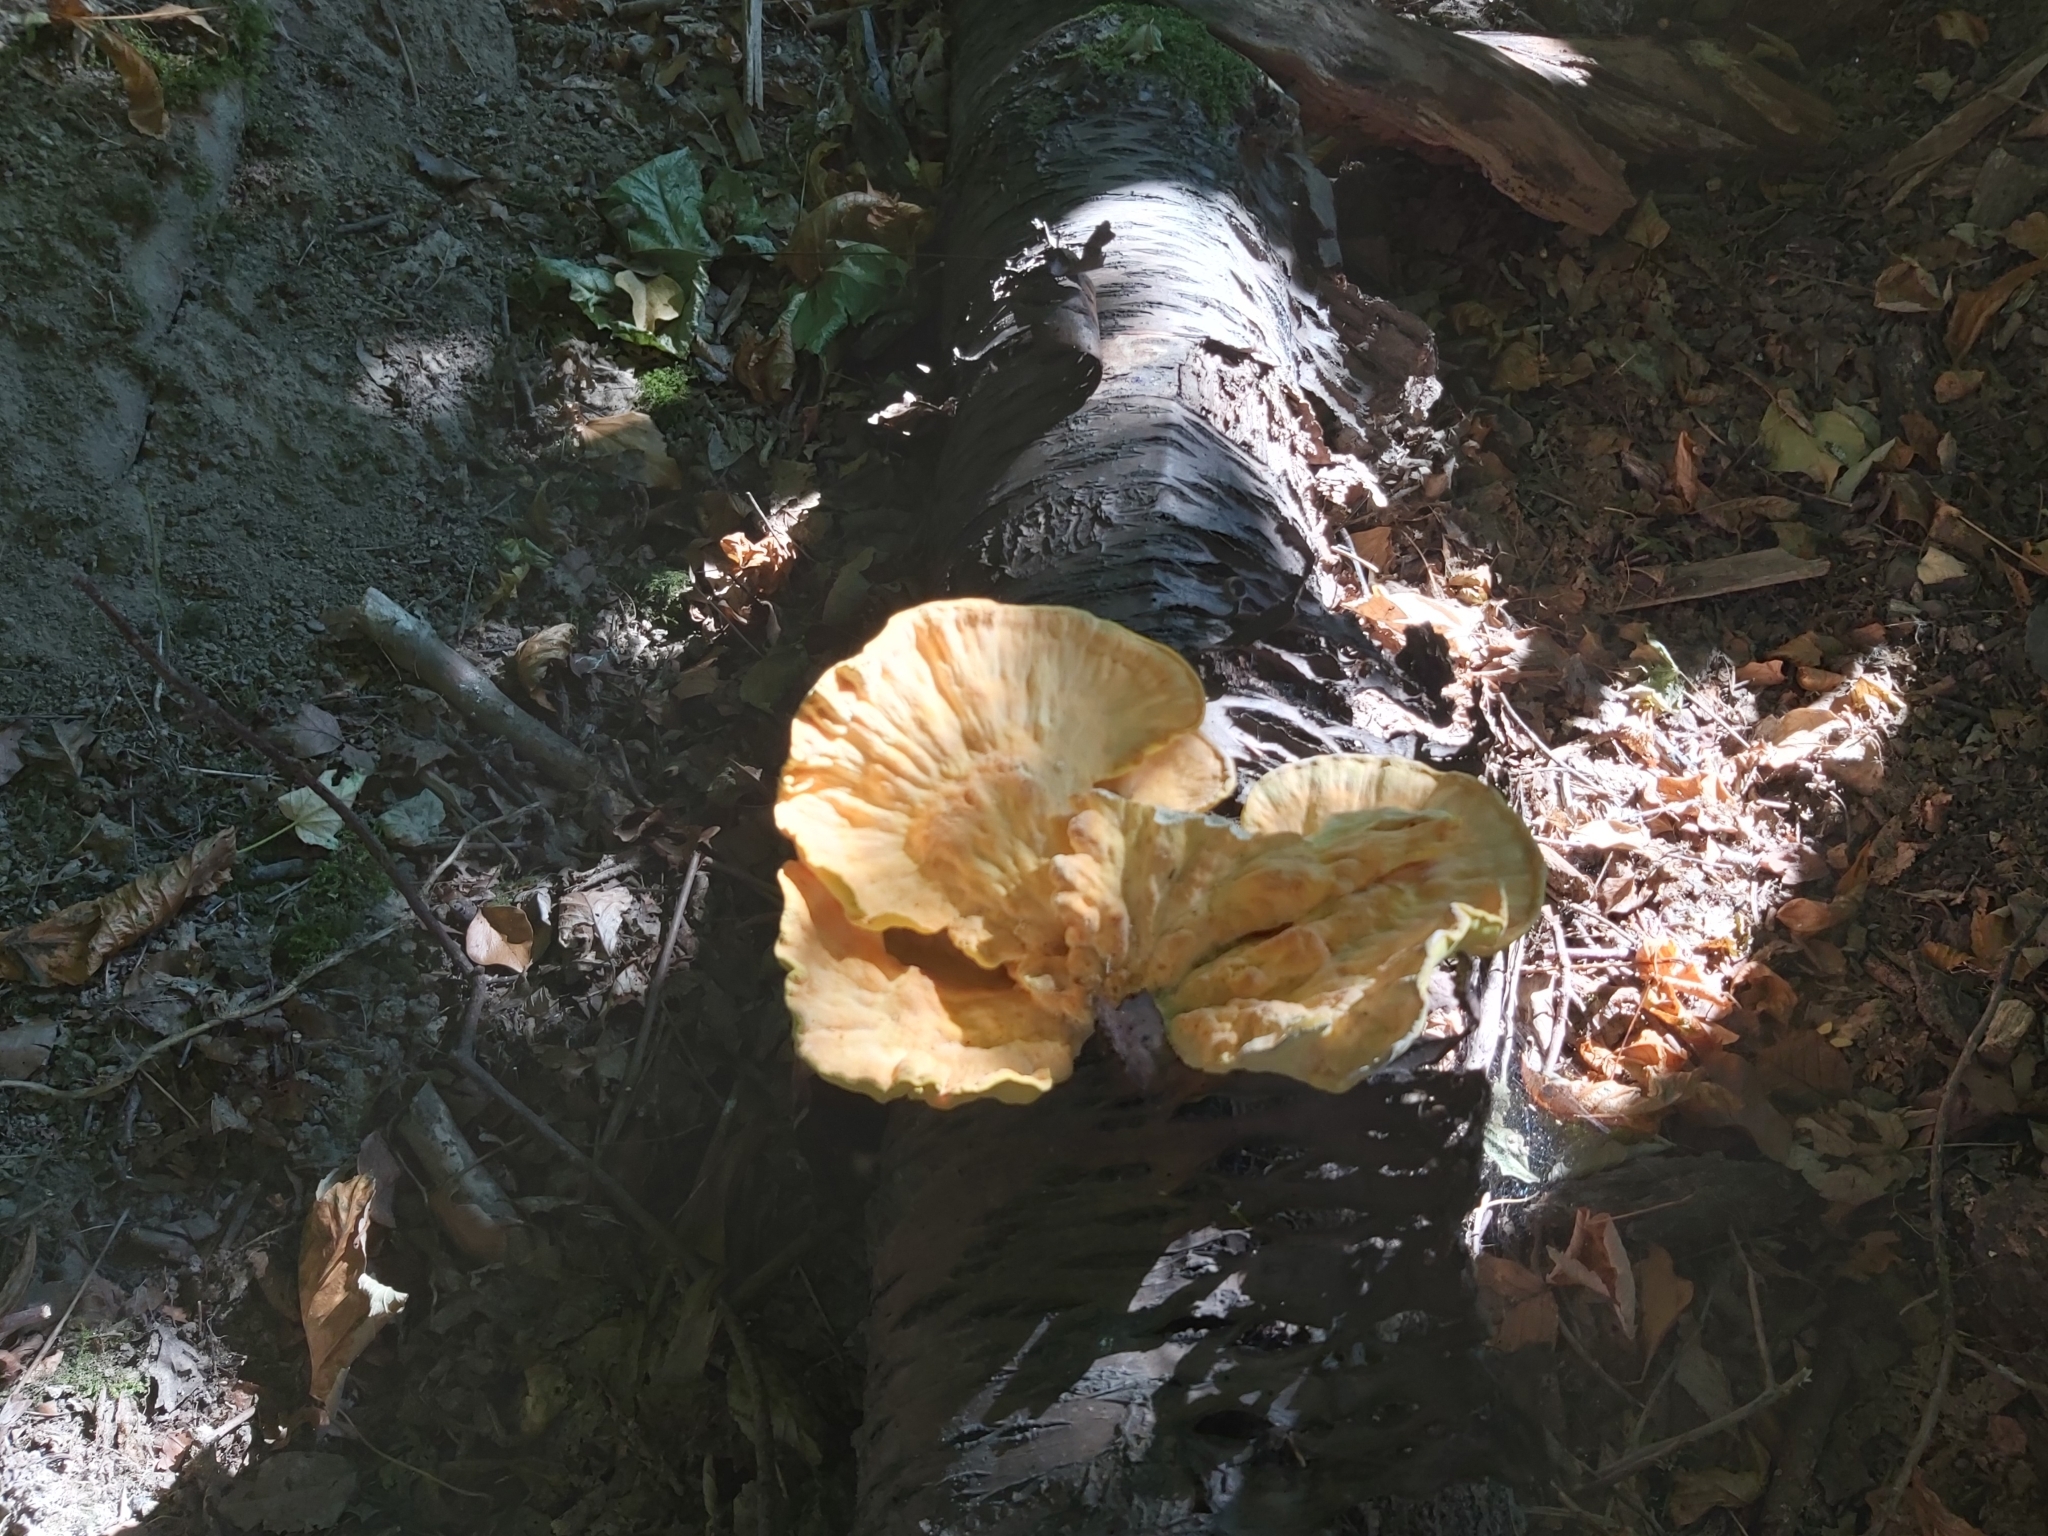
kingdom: Fungi
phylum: Basidiomycota
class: Agaricomycetes
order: Polyporales
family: Laetiporaceae
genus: Laetiporus
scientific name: Laetiporus sulphureus
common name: Chicken of the woods
